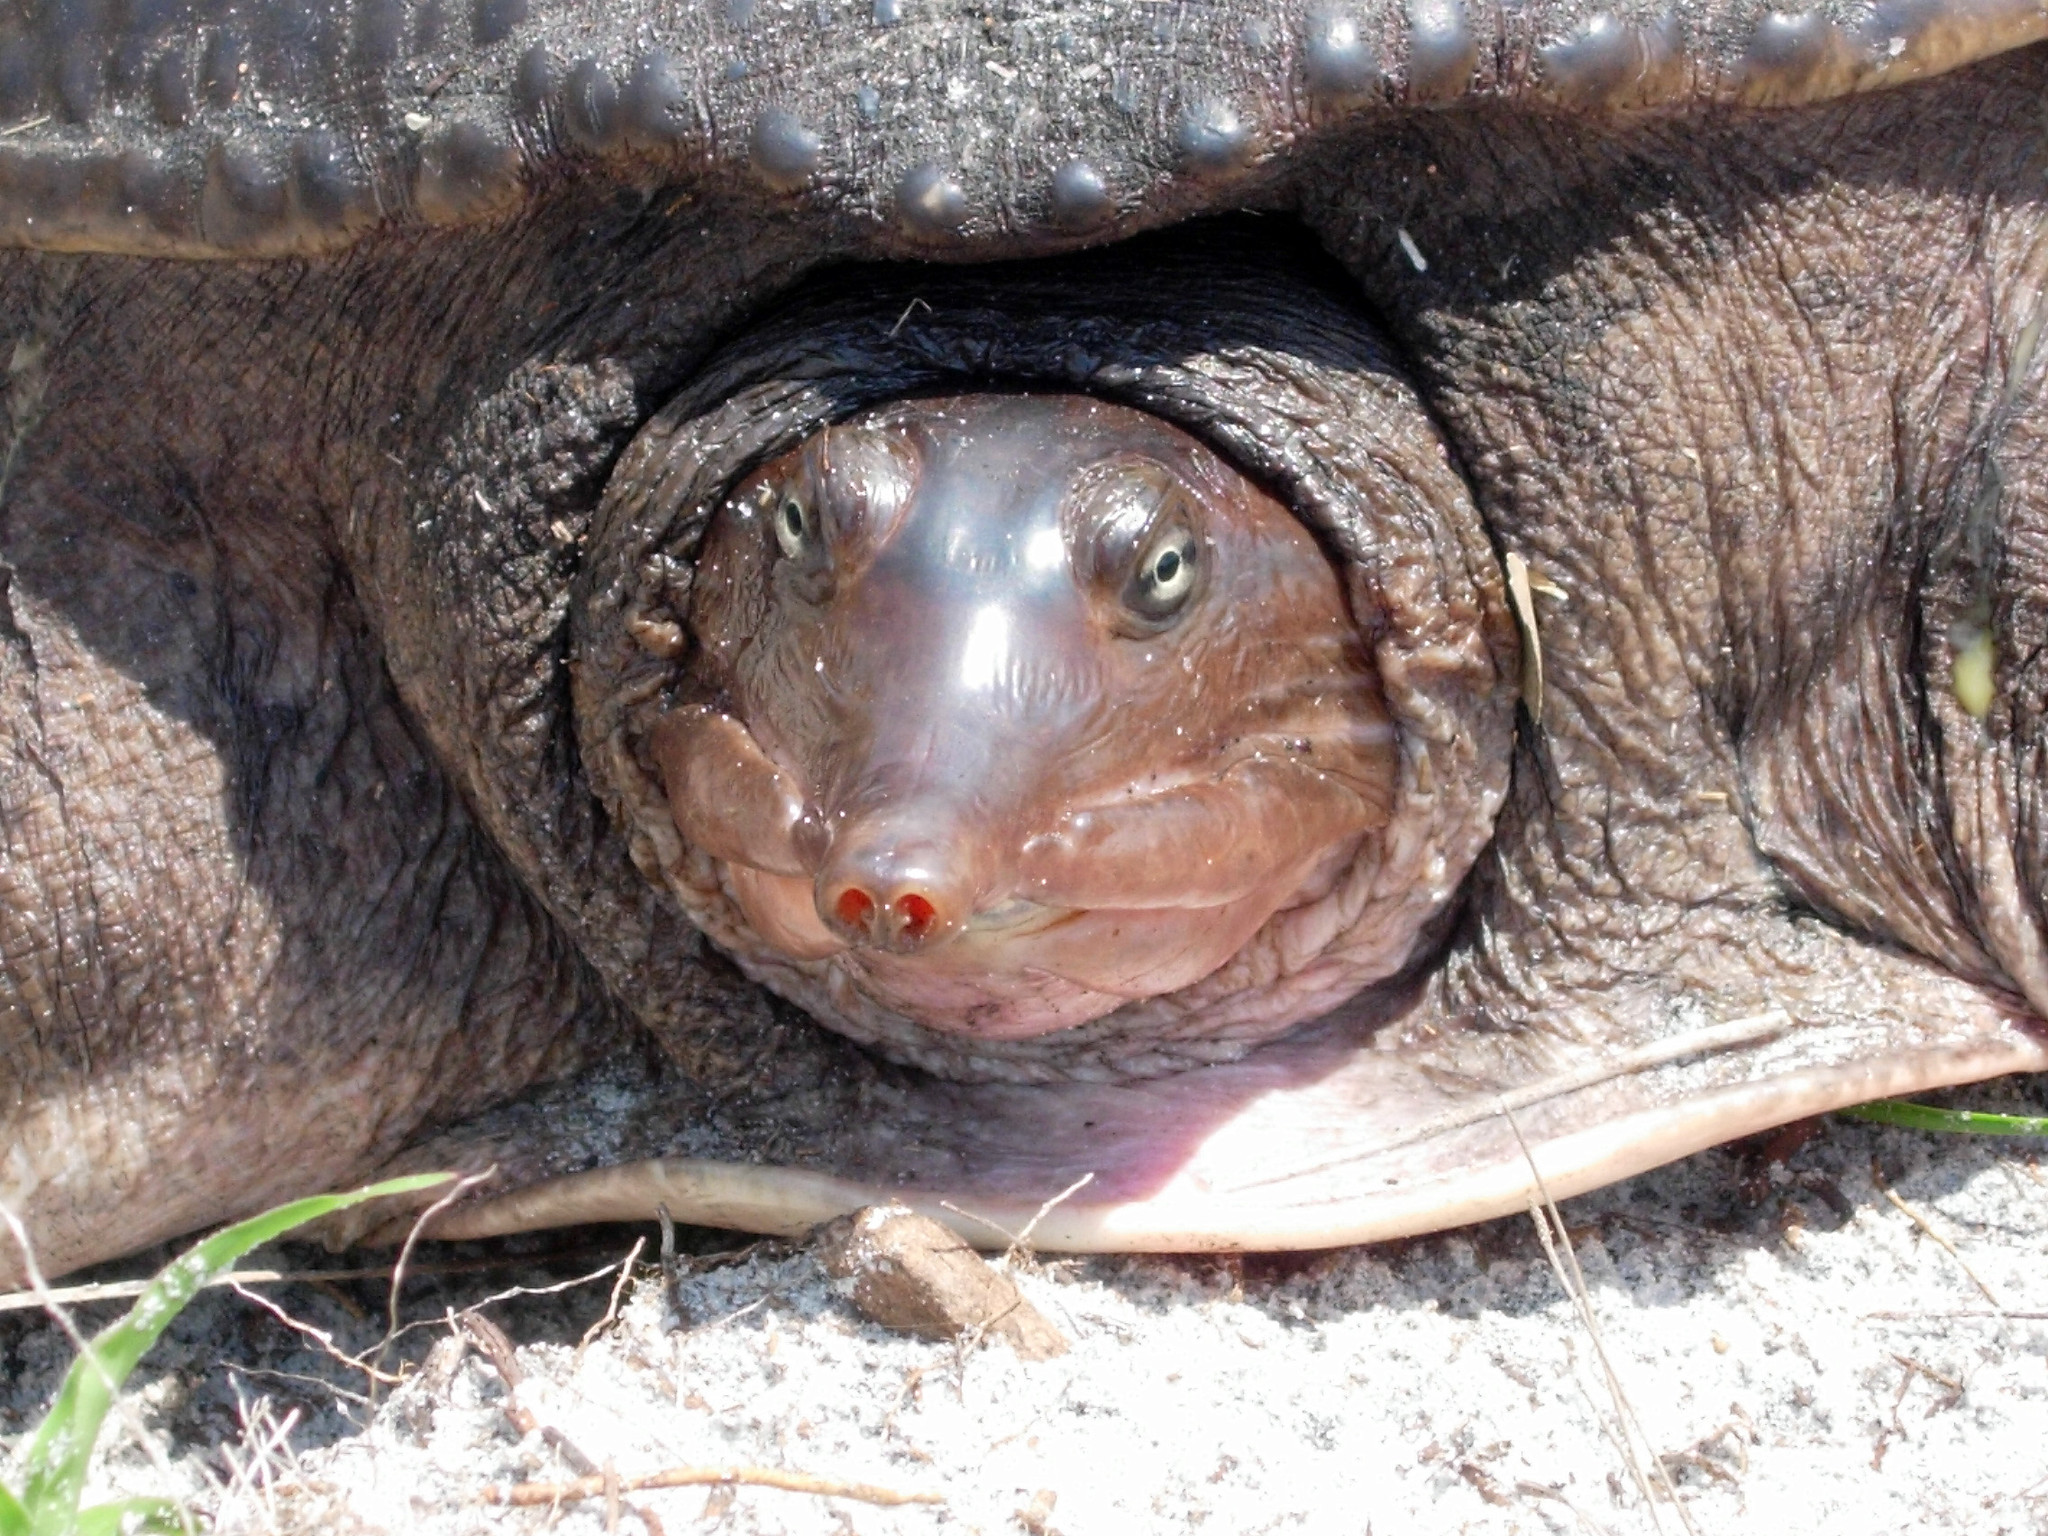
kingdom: Animalia
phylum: Chordata
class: Testudines
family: Trionychidae
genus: Apalone
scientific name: Apalone ferox
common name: Florida softshell turtle
